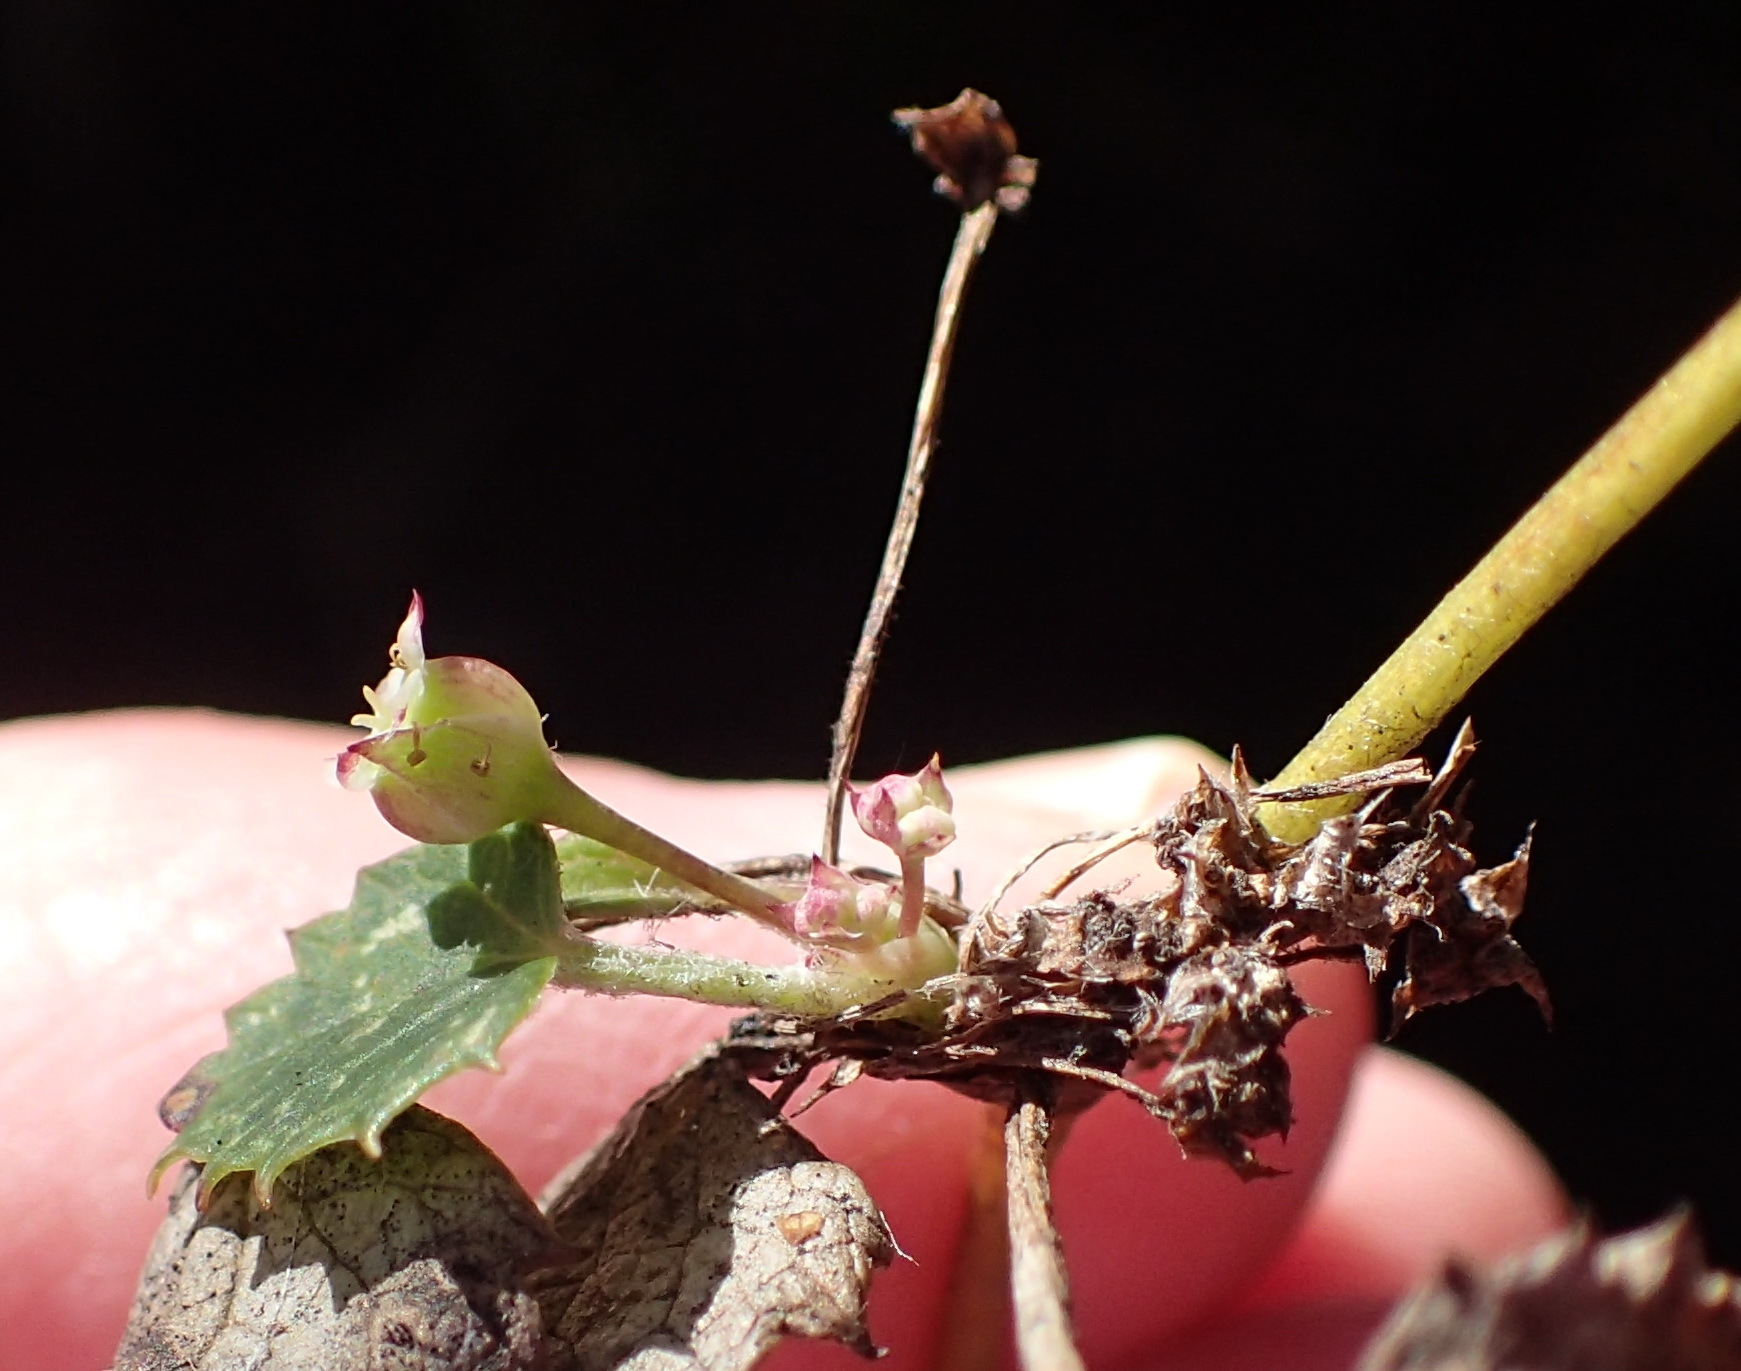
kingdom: Plantae
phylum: Tracheophyta
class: Magnoliopsida
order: Apiales
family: Apiaceae
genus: Centella
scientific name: Centella eriantha
